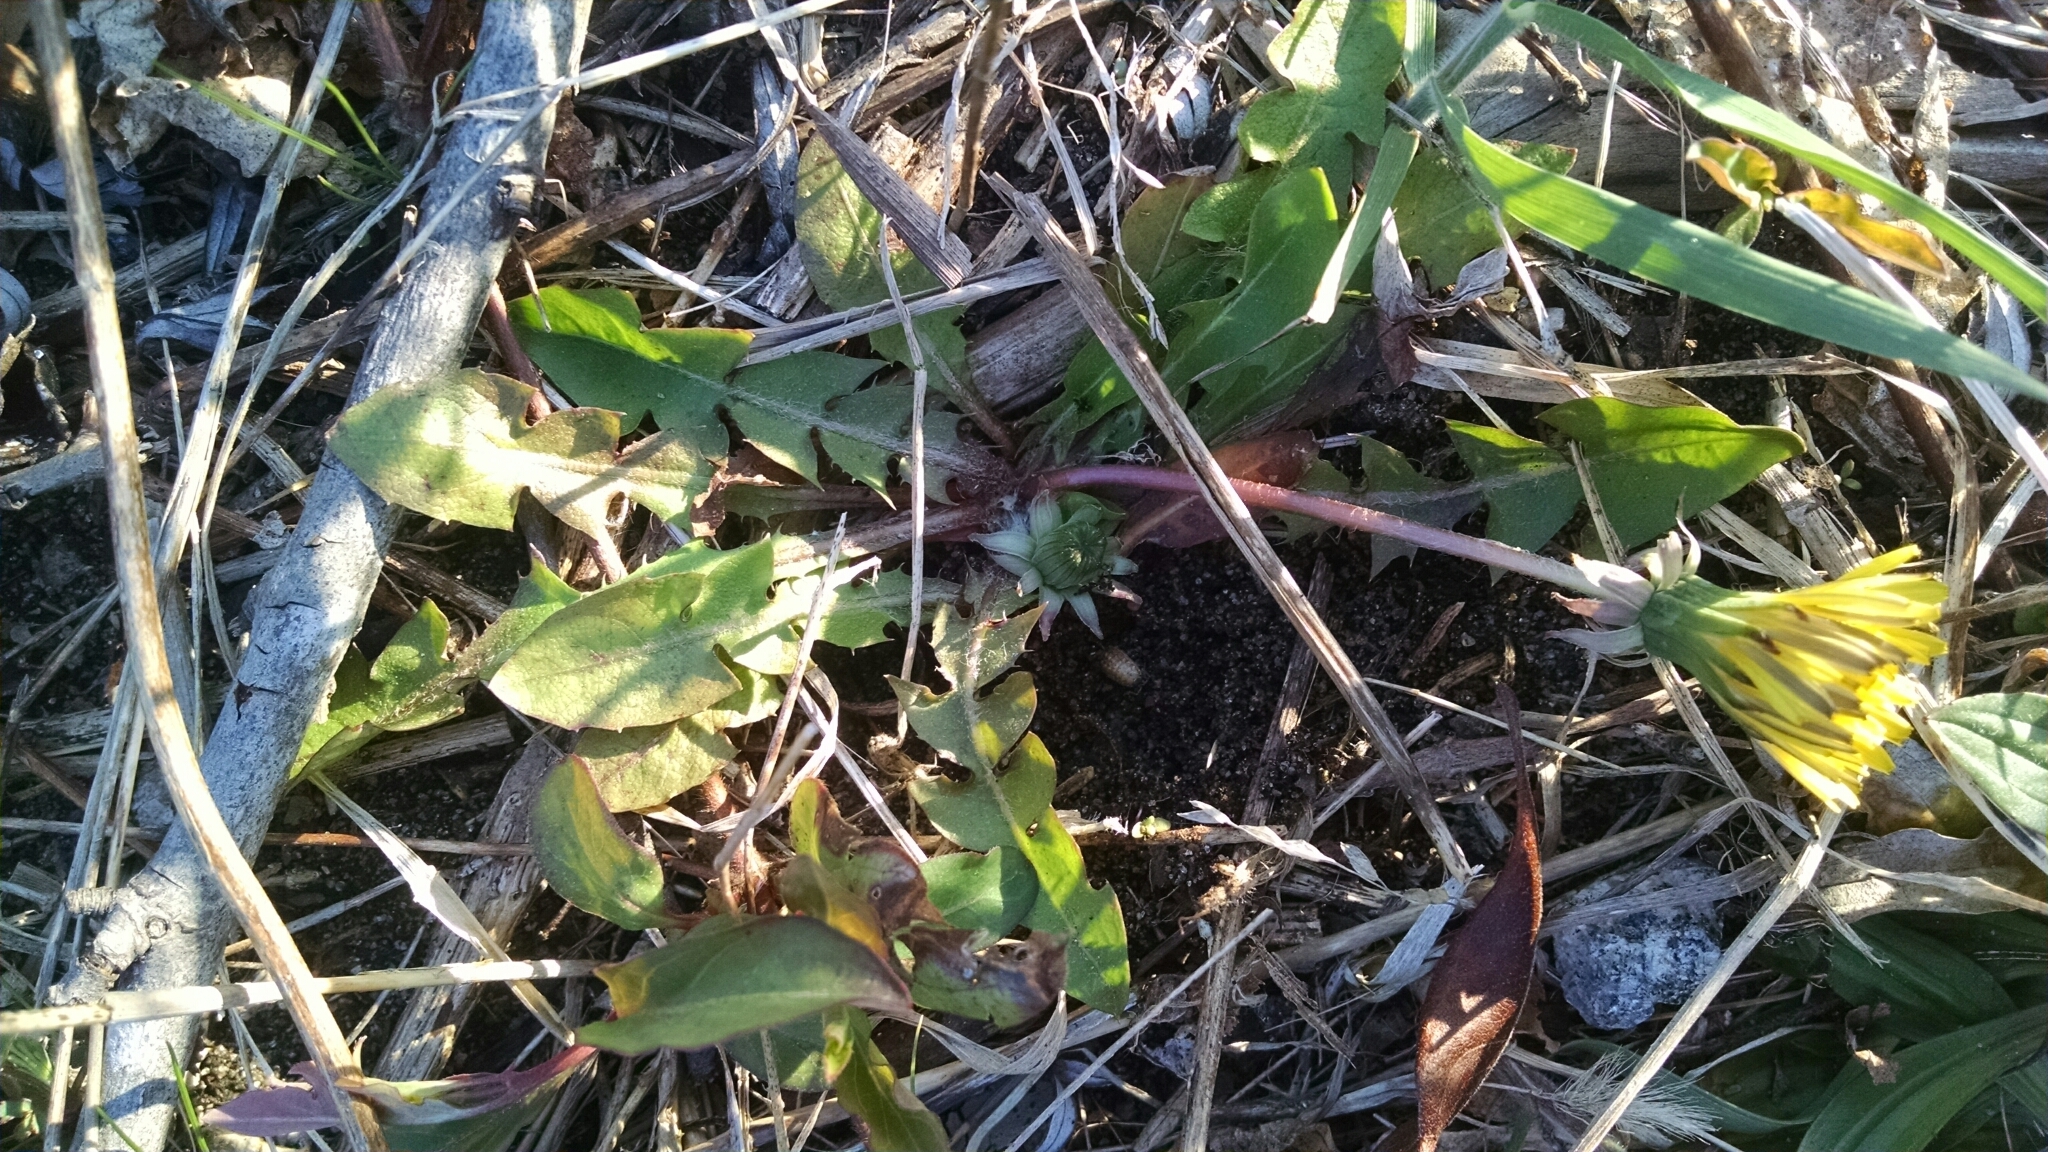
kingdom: Plantae
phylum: Tracheophyta
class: Magnoliopsida
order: Asterales
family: Asteraceae
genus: Taraxacum
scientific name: Taraxacum
